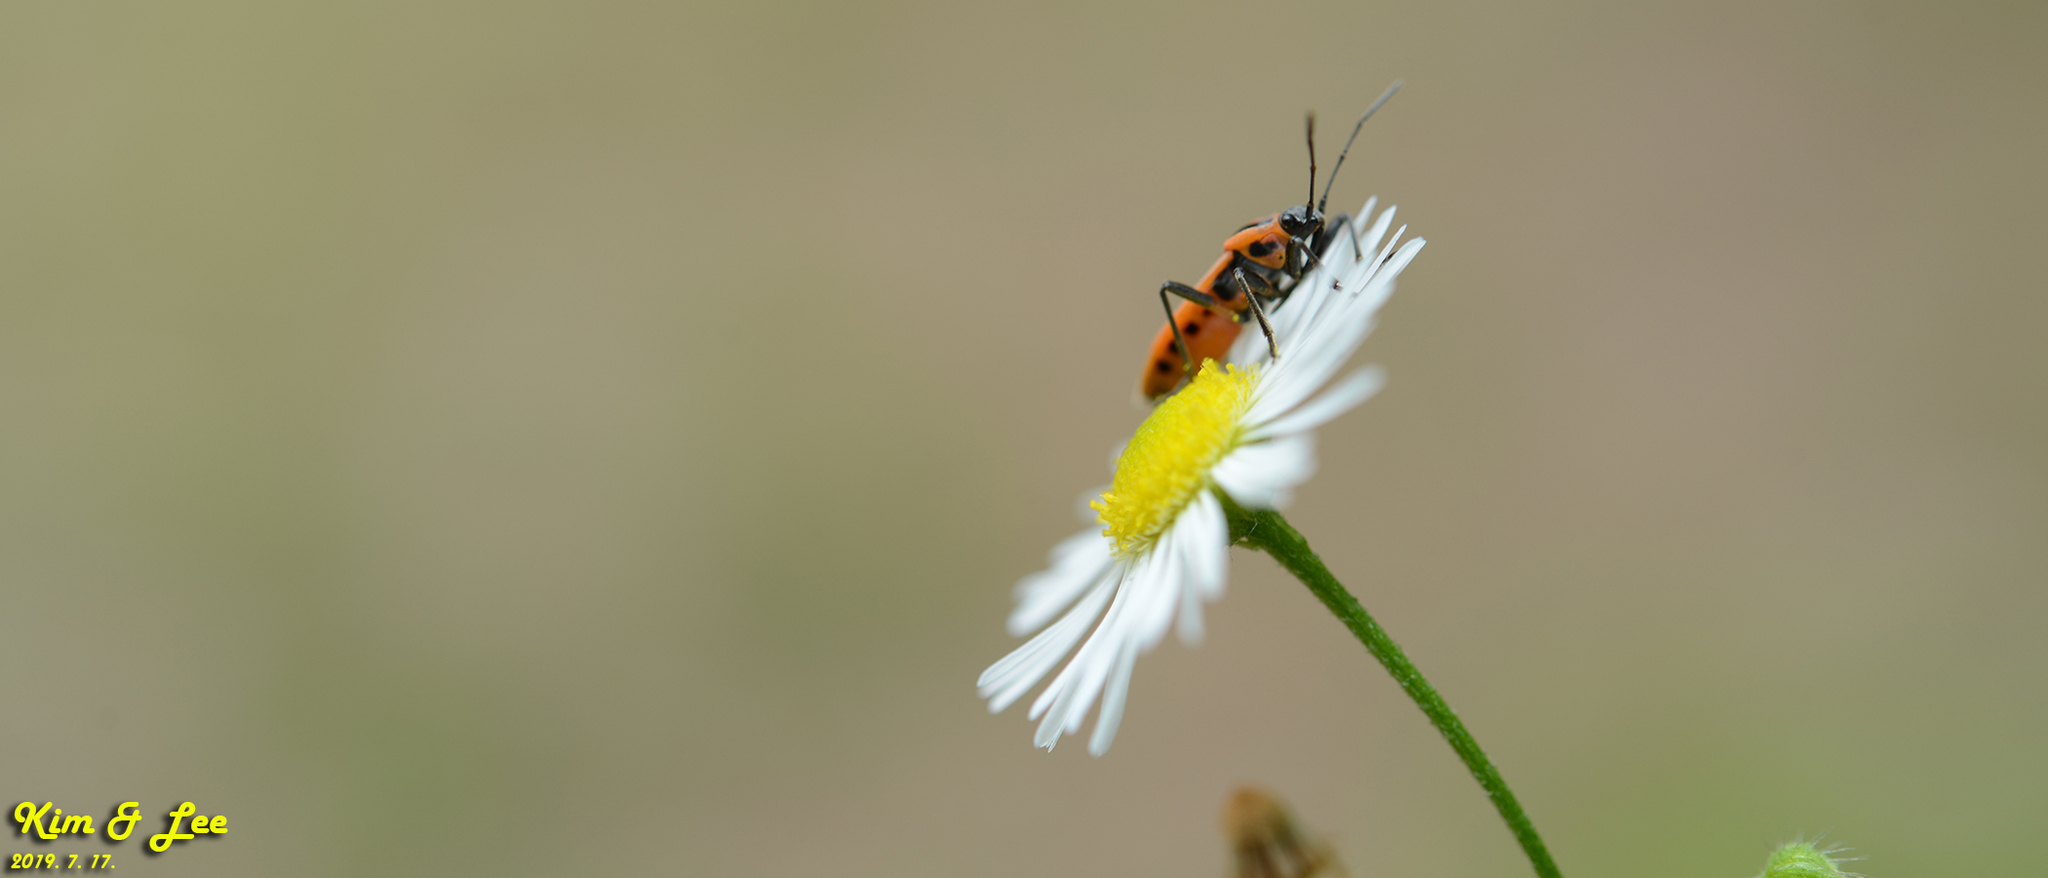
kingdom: Animalia
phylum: Arthropoda
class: Insecta
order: Hemiptera
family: Lygaeidae
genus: Tropidothorax
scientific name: Tropidothorax cruciger
